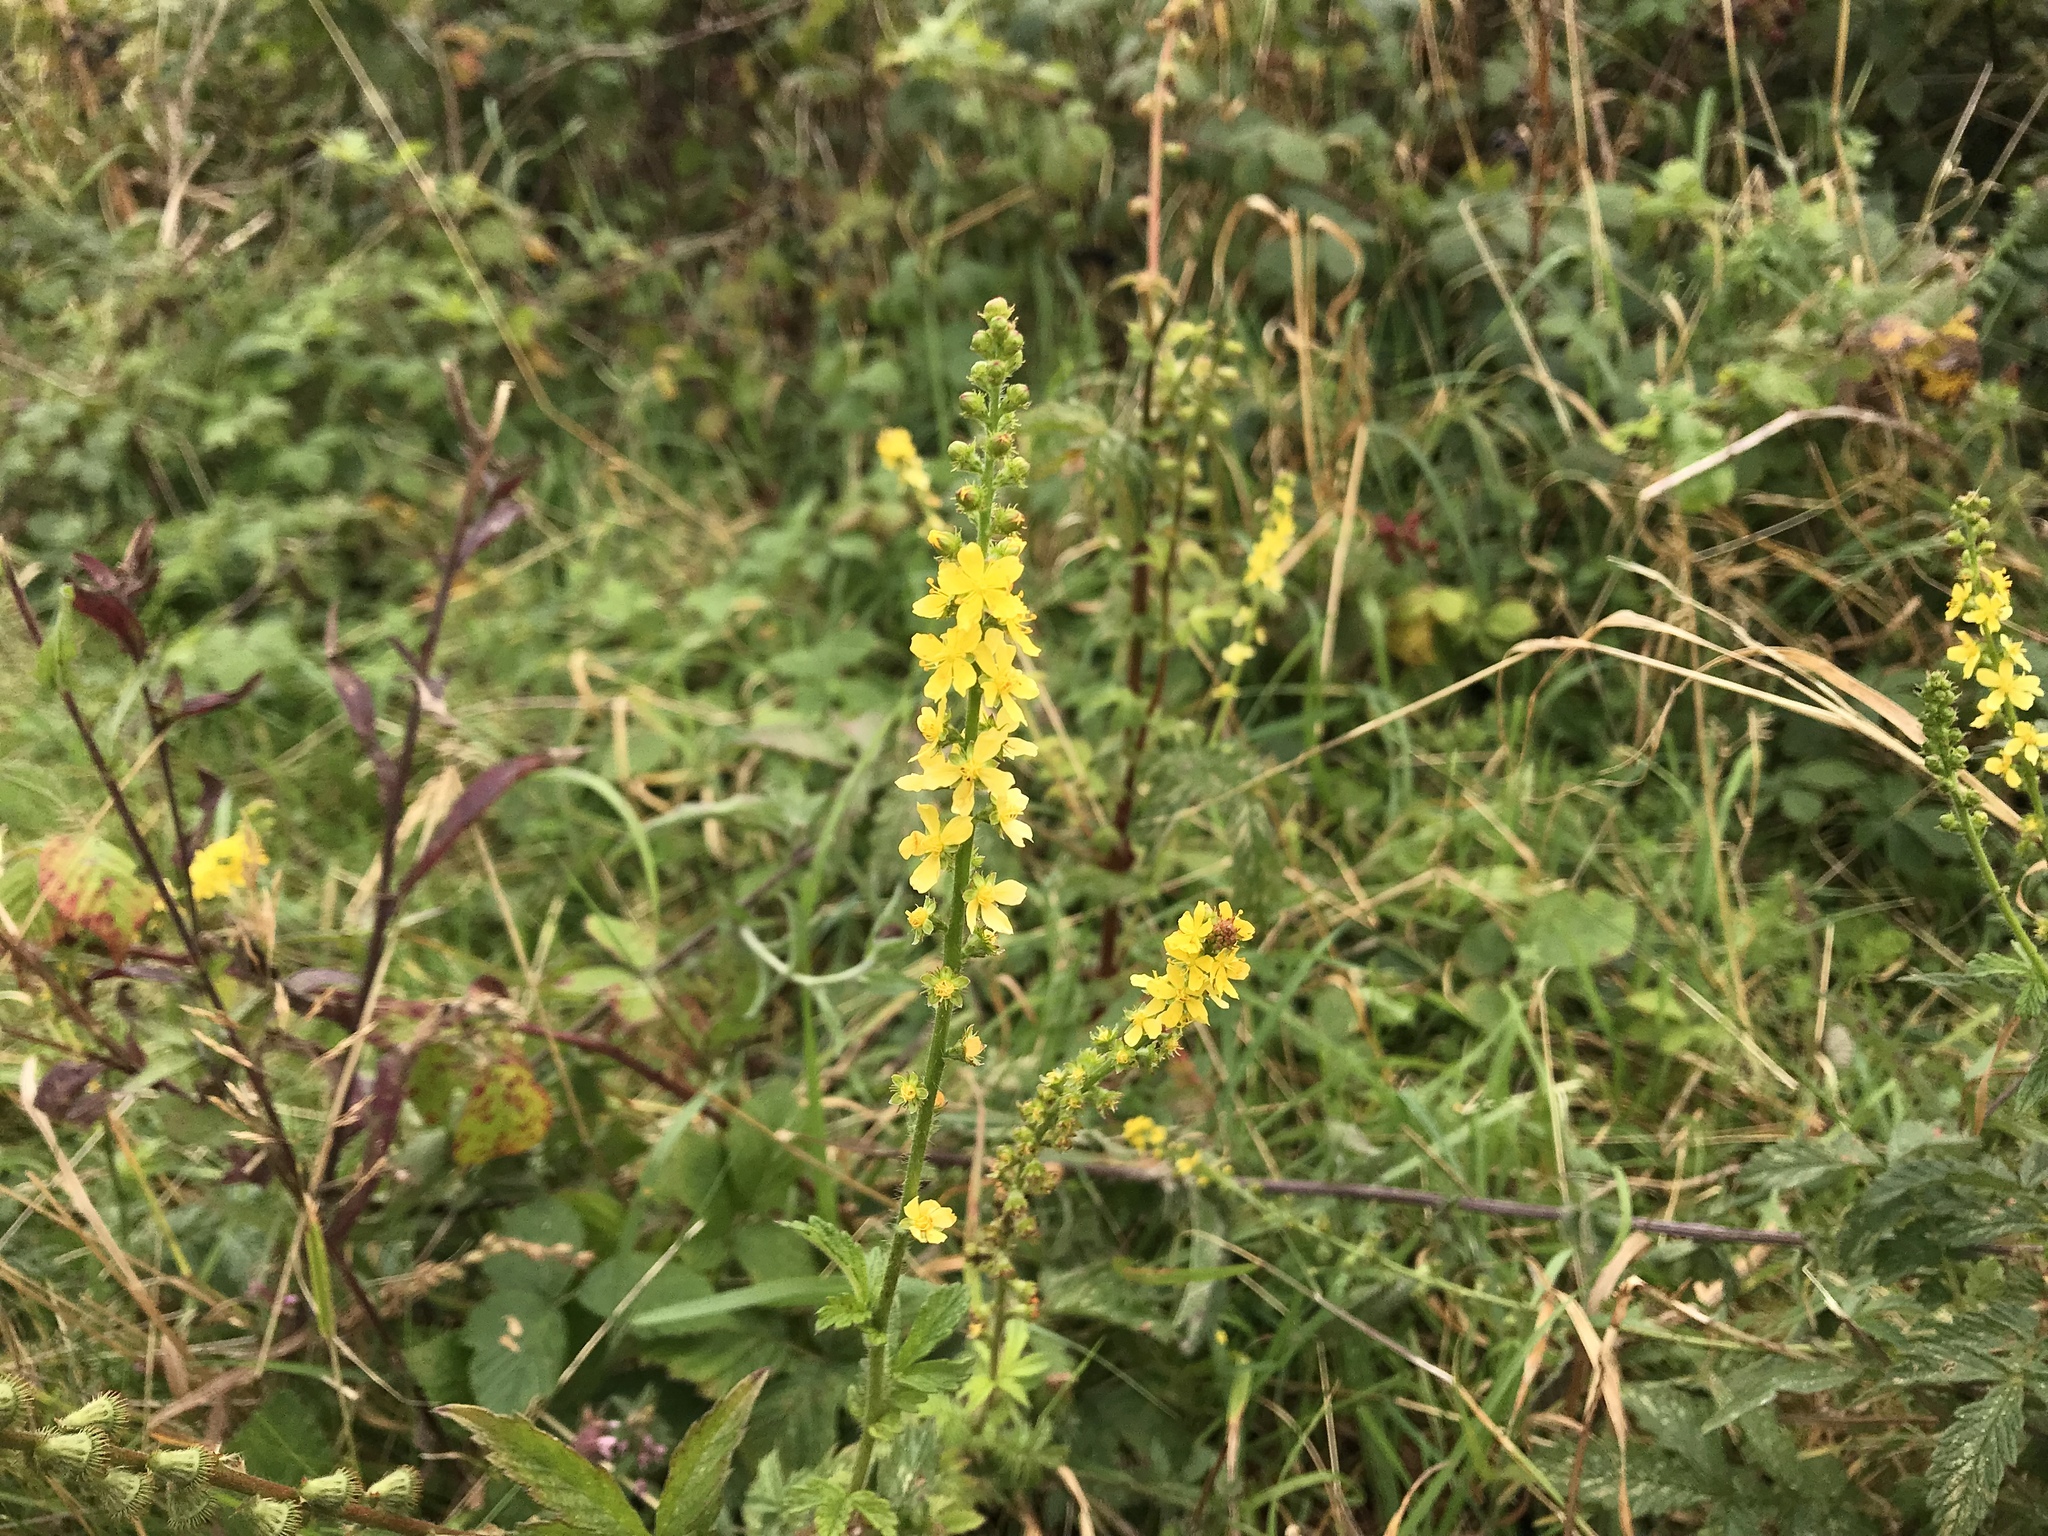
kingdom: Plantae
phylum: Tracheophyta
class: Magnoliopsida
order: Rosales
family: Rosaceae
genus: Agrimonia
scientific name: Agrimonia eupatoria
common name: Agrimony
